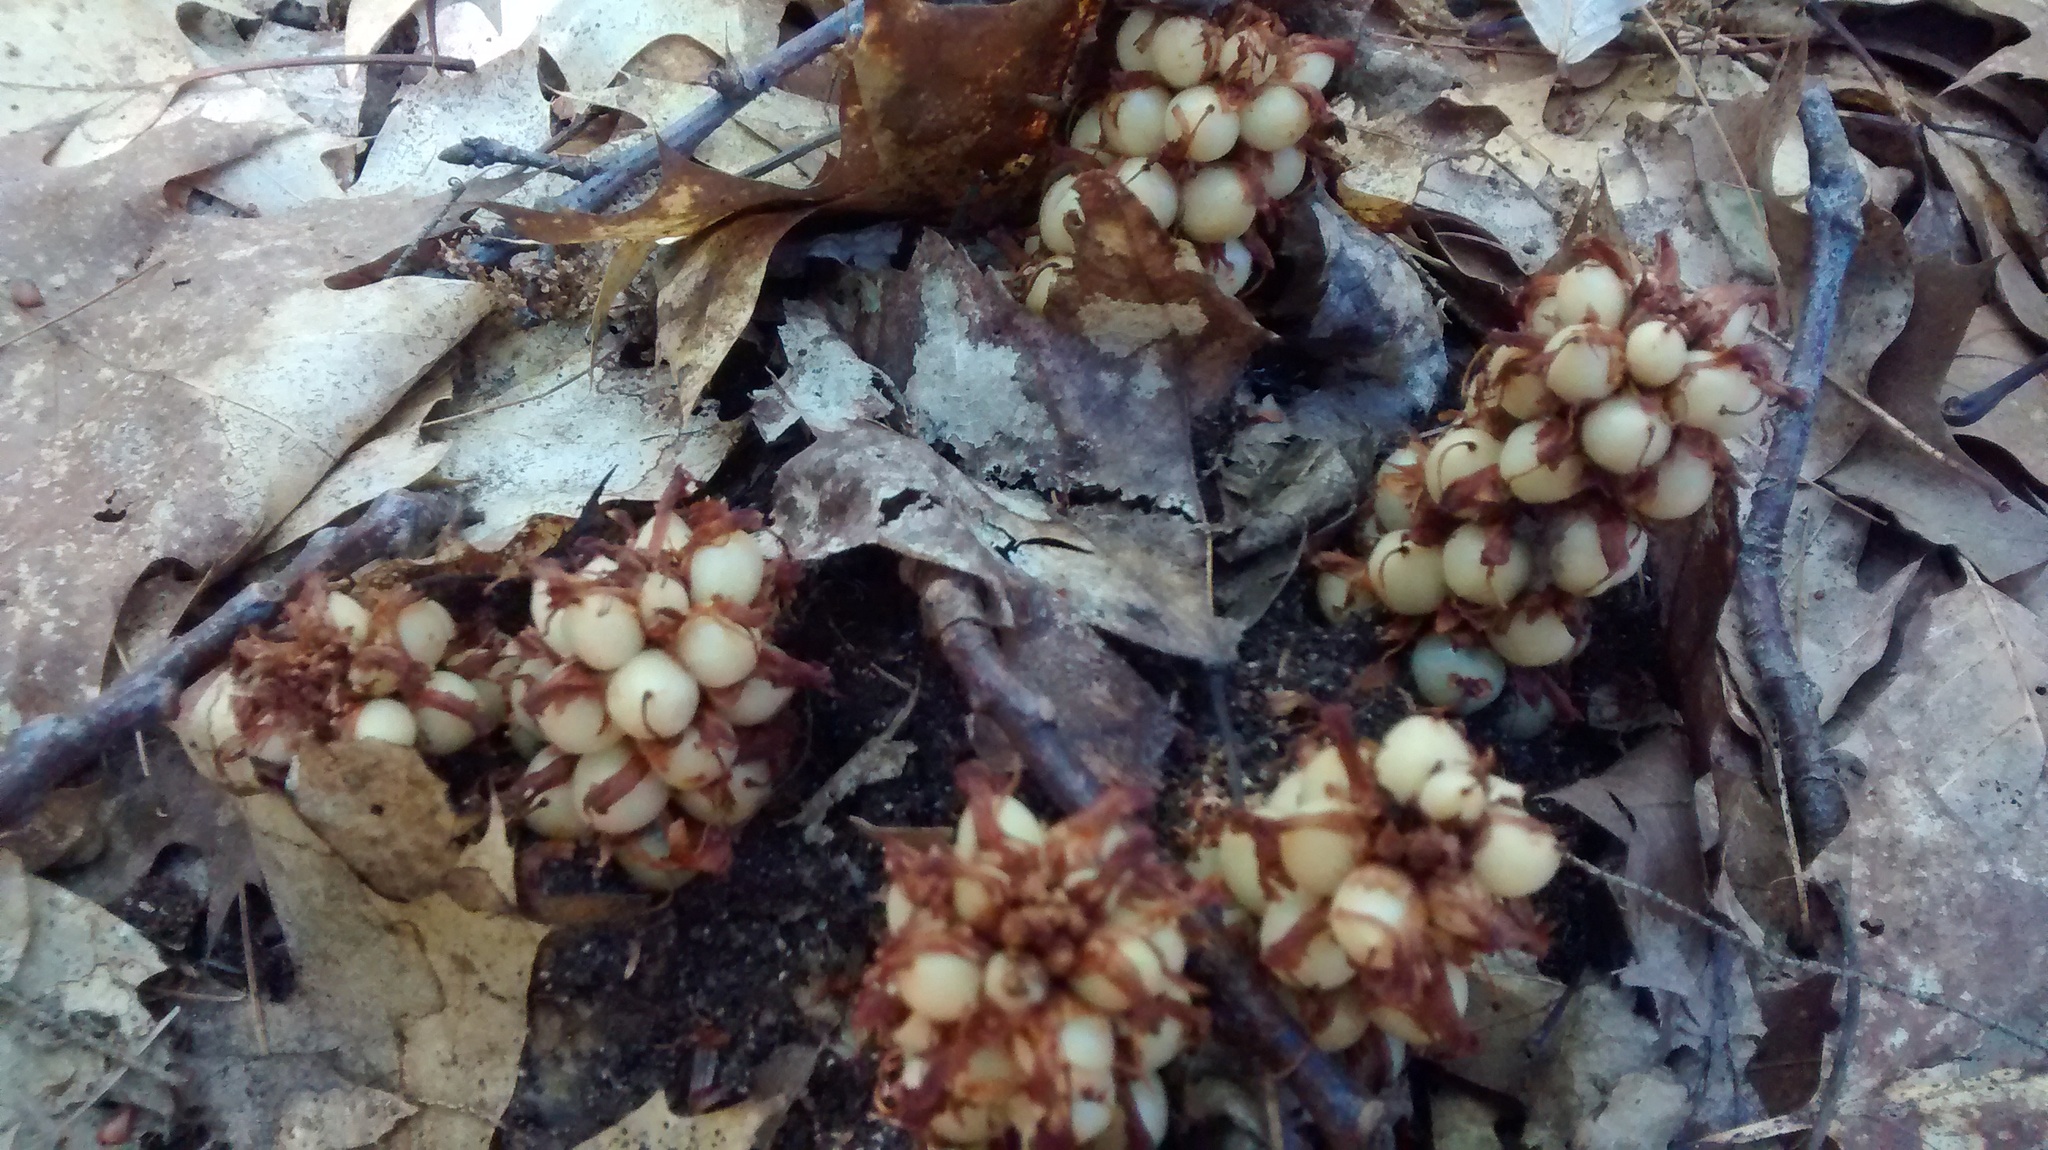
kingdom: Plantae
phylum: Tracheophyta
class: Magnoliopsida
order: Lamiales
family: Orobanchaceae
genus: Conopholis
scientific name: Conopholis americana
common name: American cancer-root
